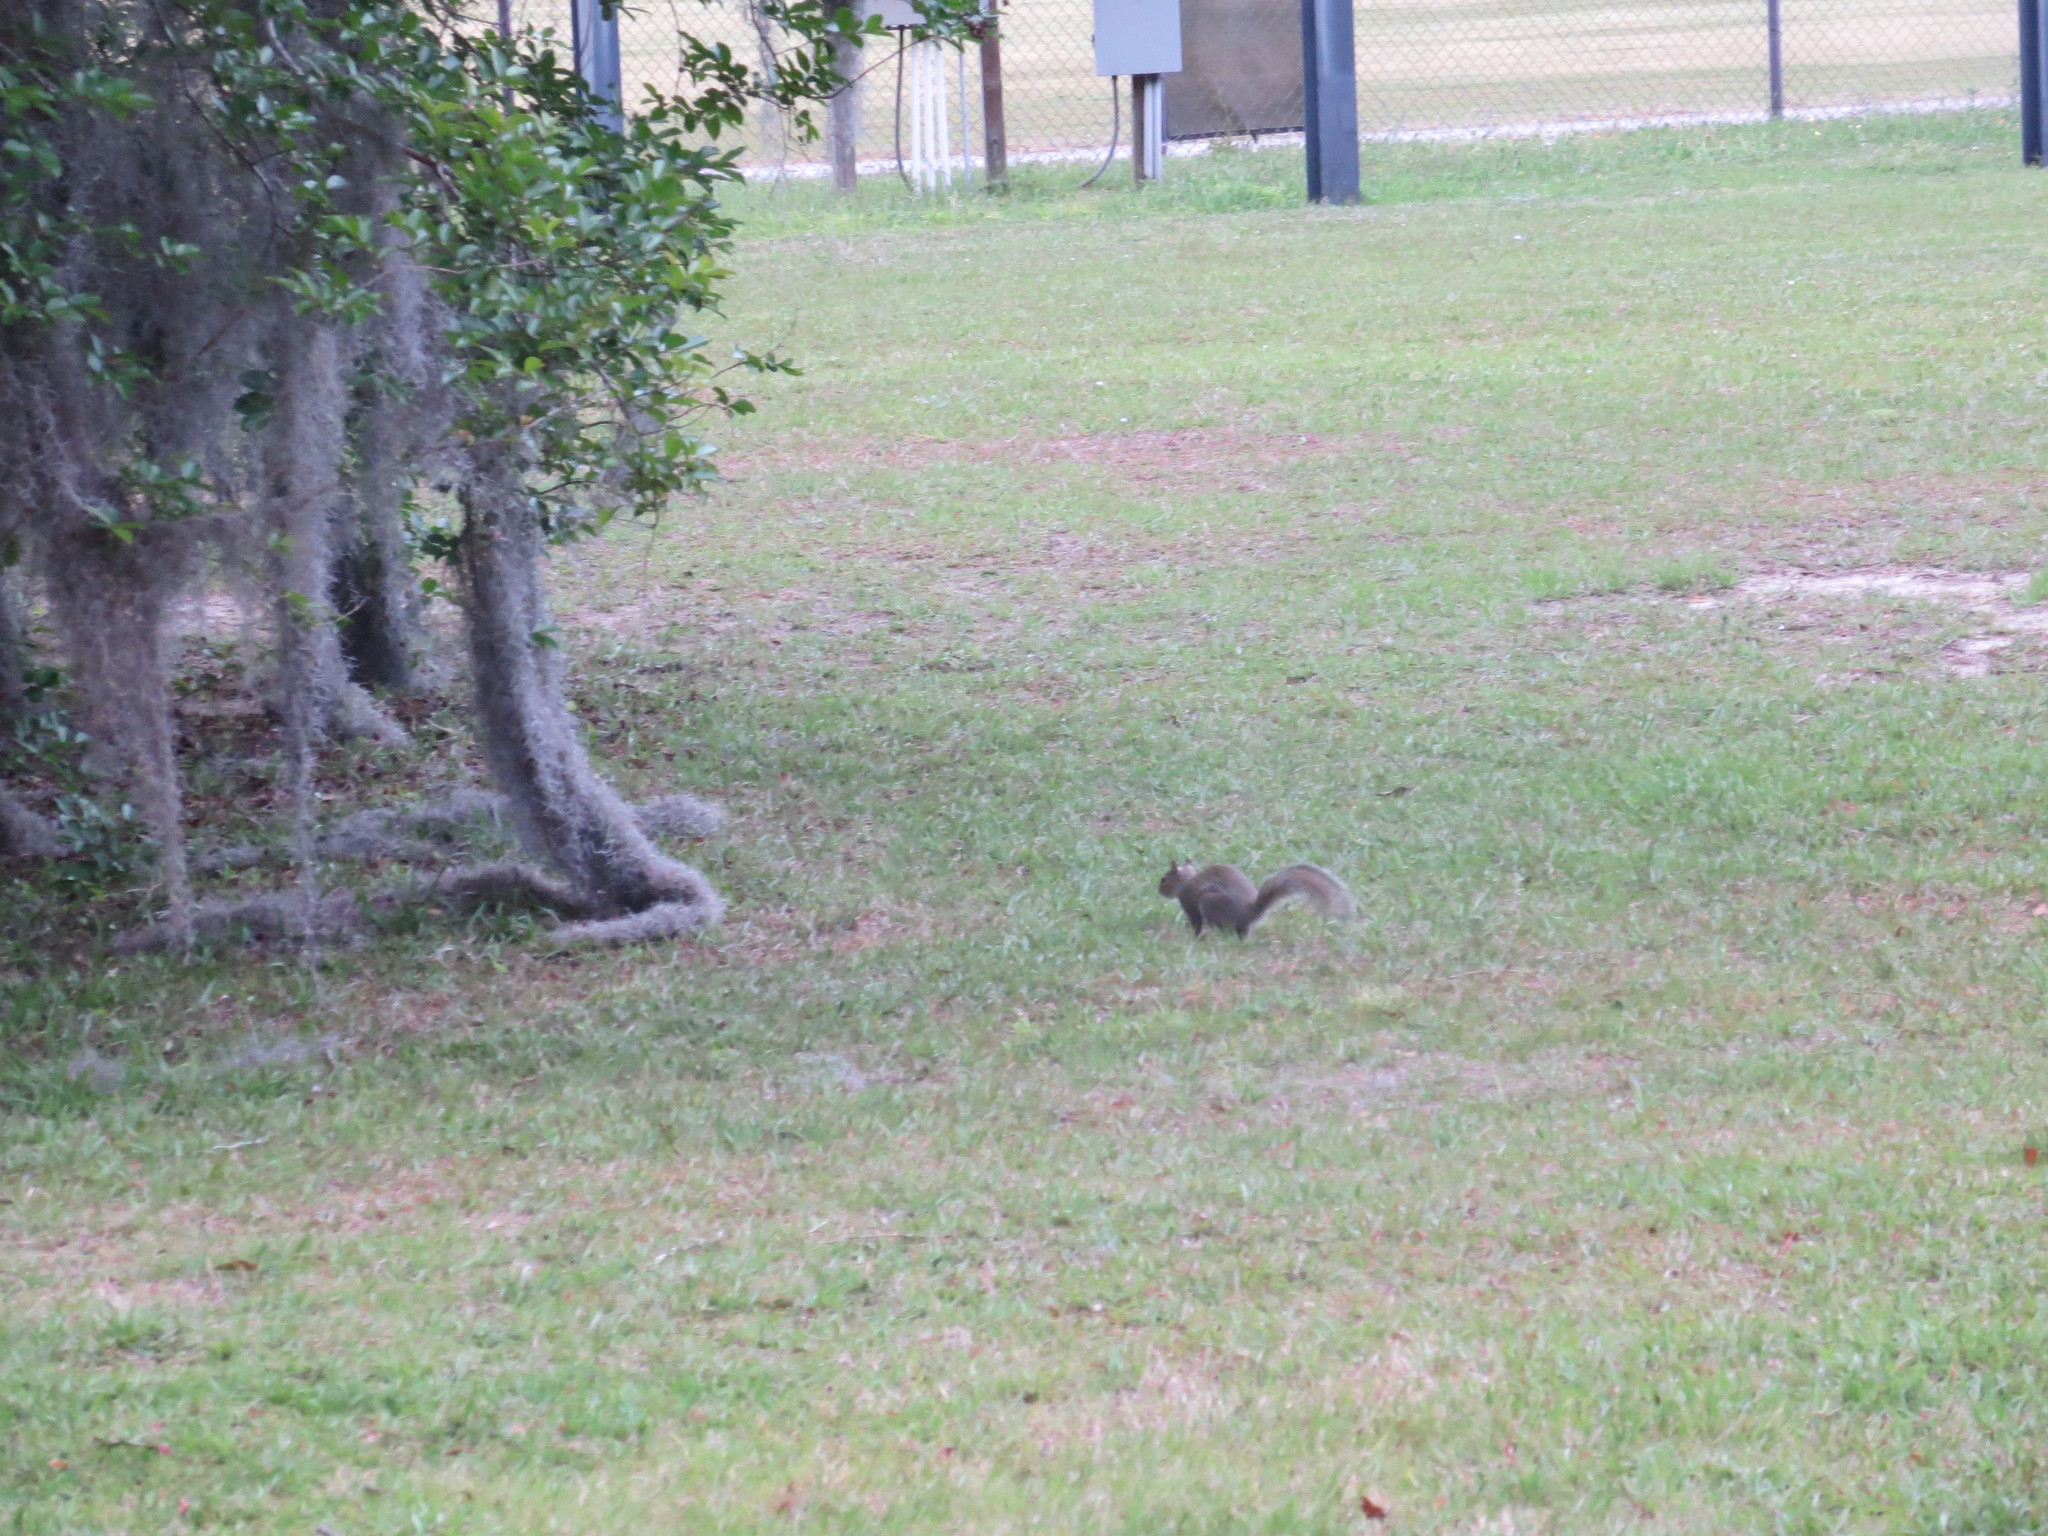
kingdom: Animalia
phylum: Chordata
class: Mammalia
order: Rodentia
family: Sciuridae
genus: Sciurus
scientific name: Sciurus carolinensis
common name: Eastern gray squirrel
